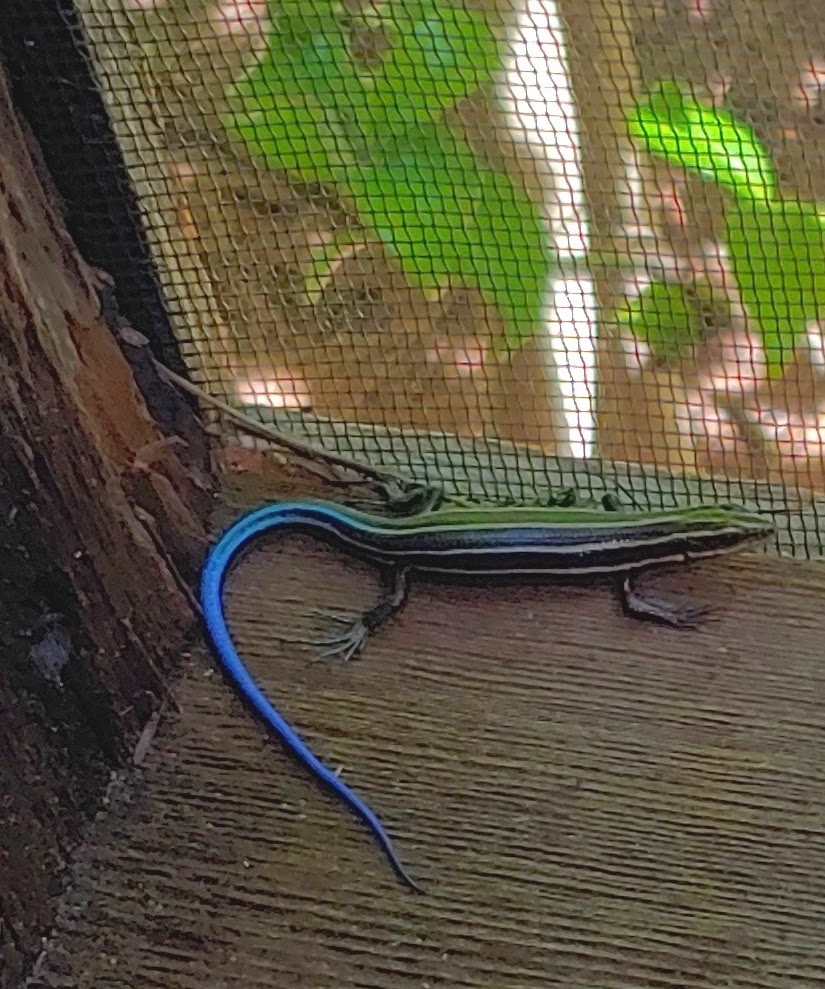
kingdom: Animalia
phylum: Chordata
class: Squamata
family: Scincidae
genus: Plestiodon
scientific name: Plestiodon fasciatus
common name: Five-lined skink
